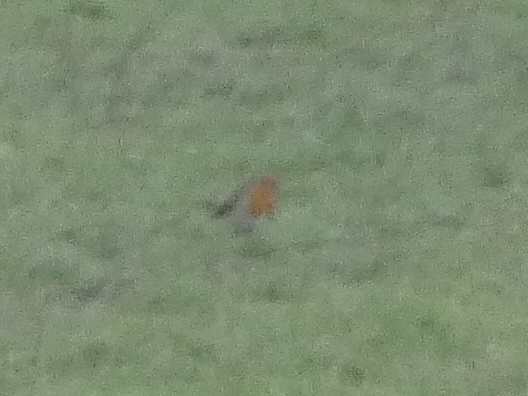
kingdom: Animalia
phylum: Chordata
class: Aves
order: Passeriformes
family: Muscicapidae
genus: Erithacus
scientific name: Erithacus rubecula
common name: European robin
